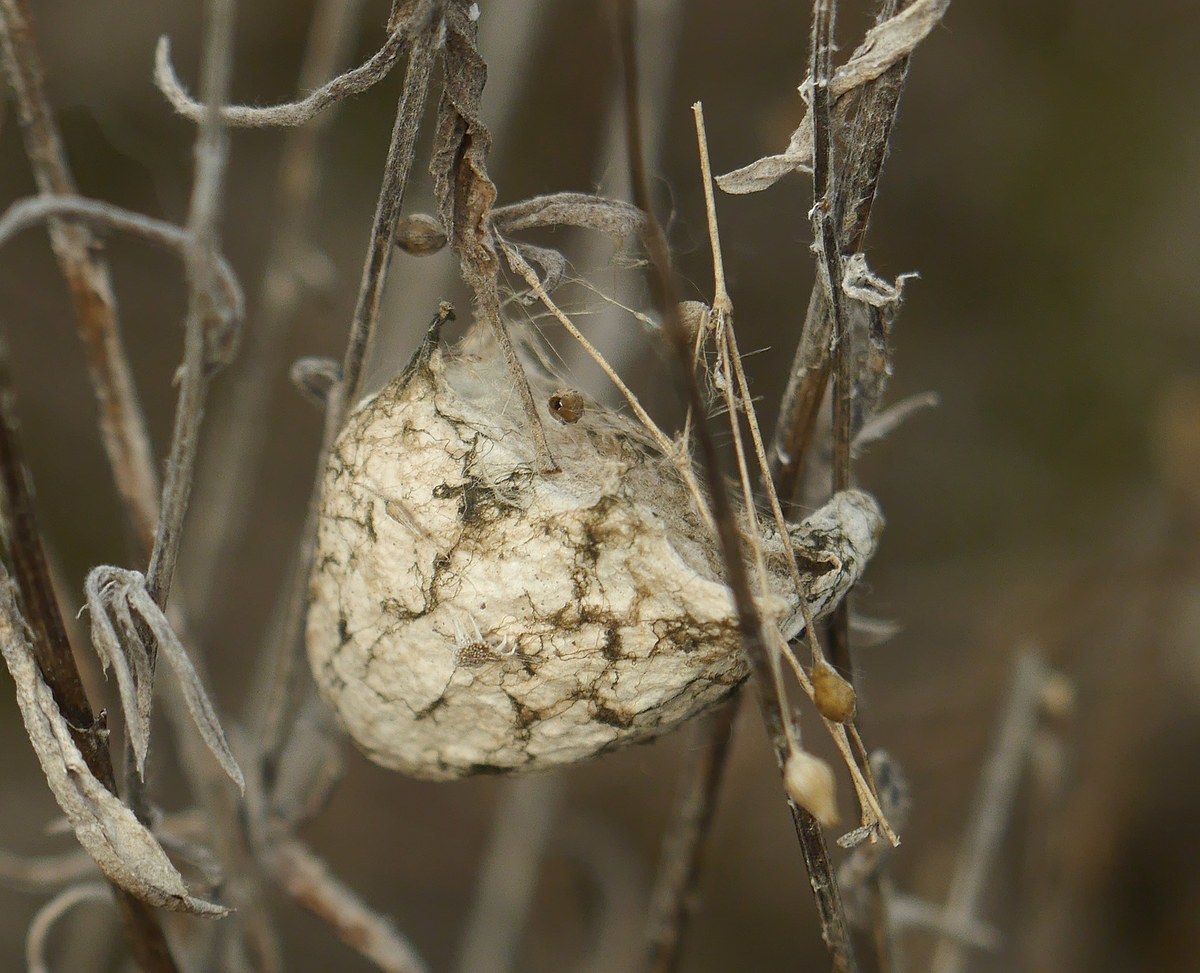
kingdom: Animalia
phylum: Arthropoda
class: Arachnida
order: Araneae
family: Araneidae
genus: Argiope
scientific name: Argiope lobata
